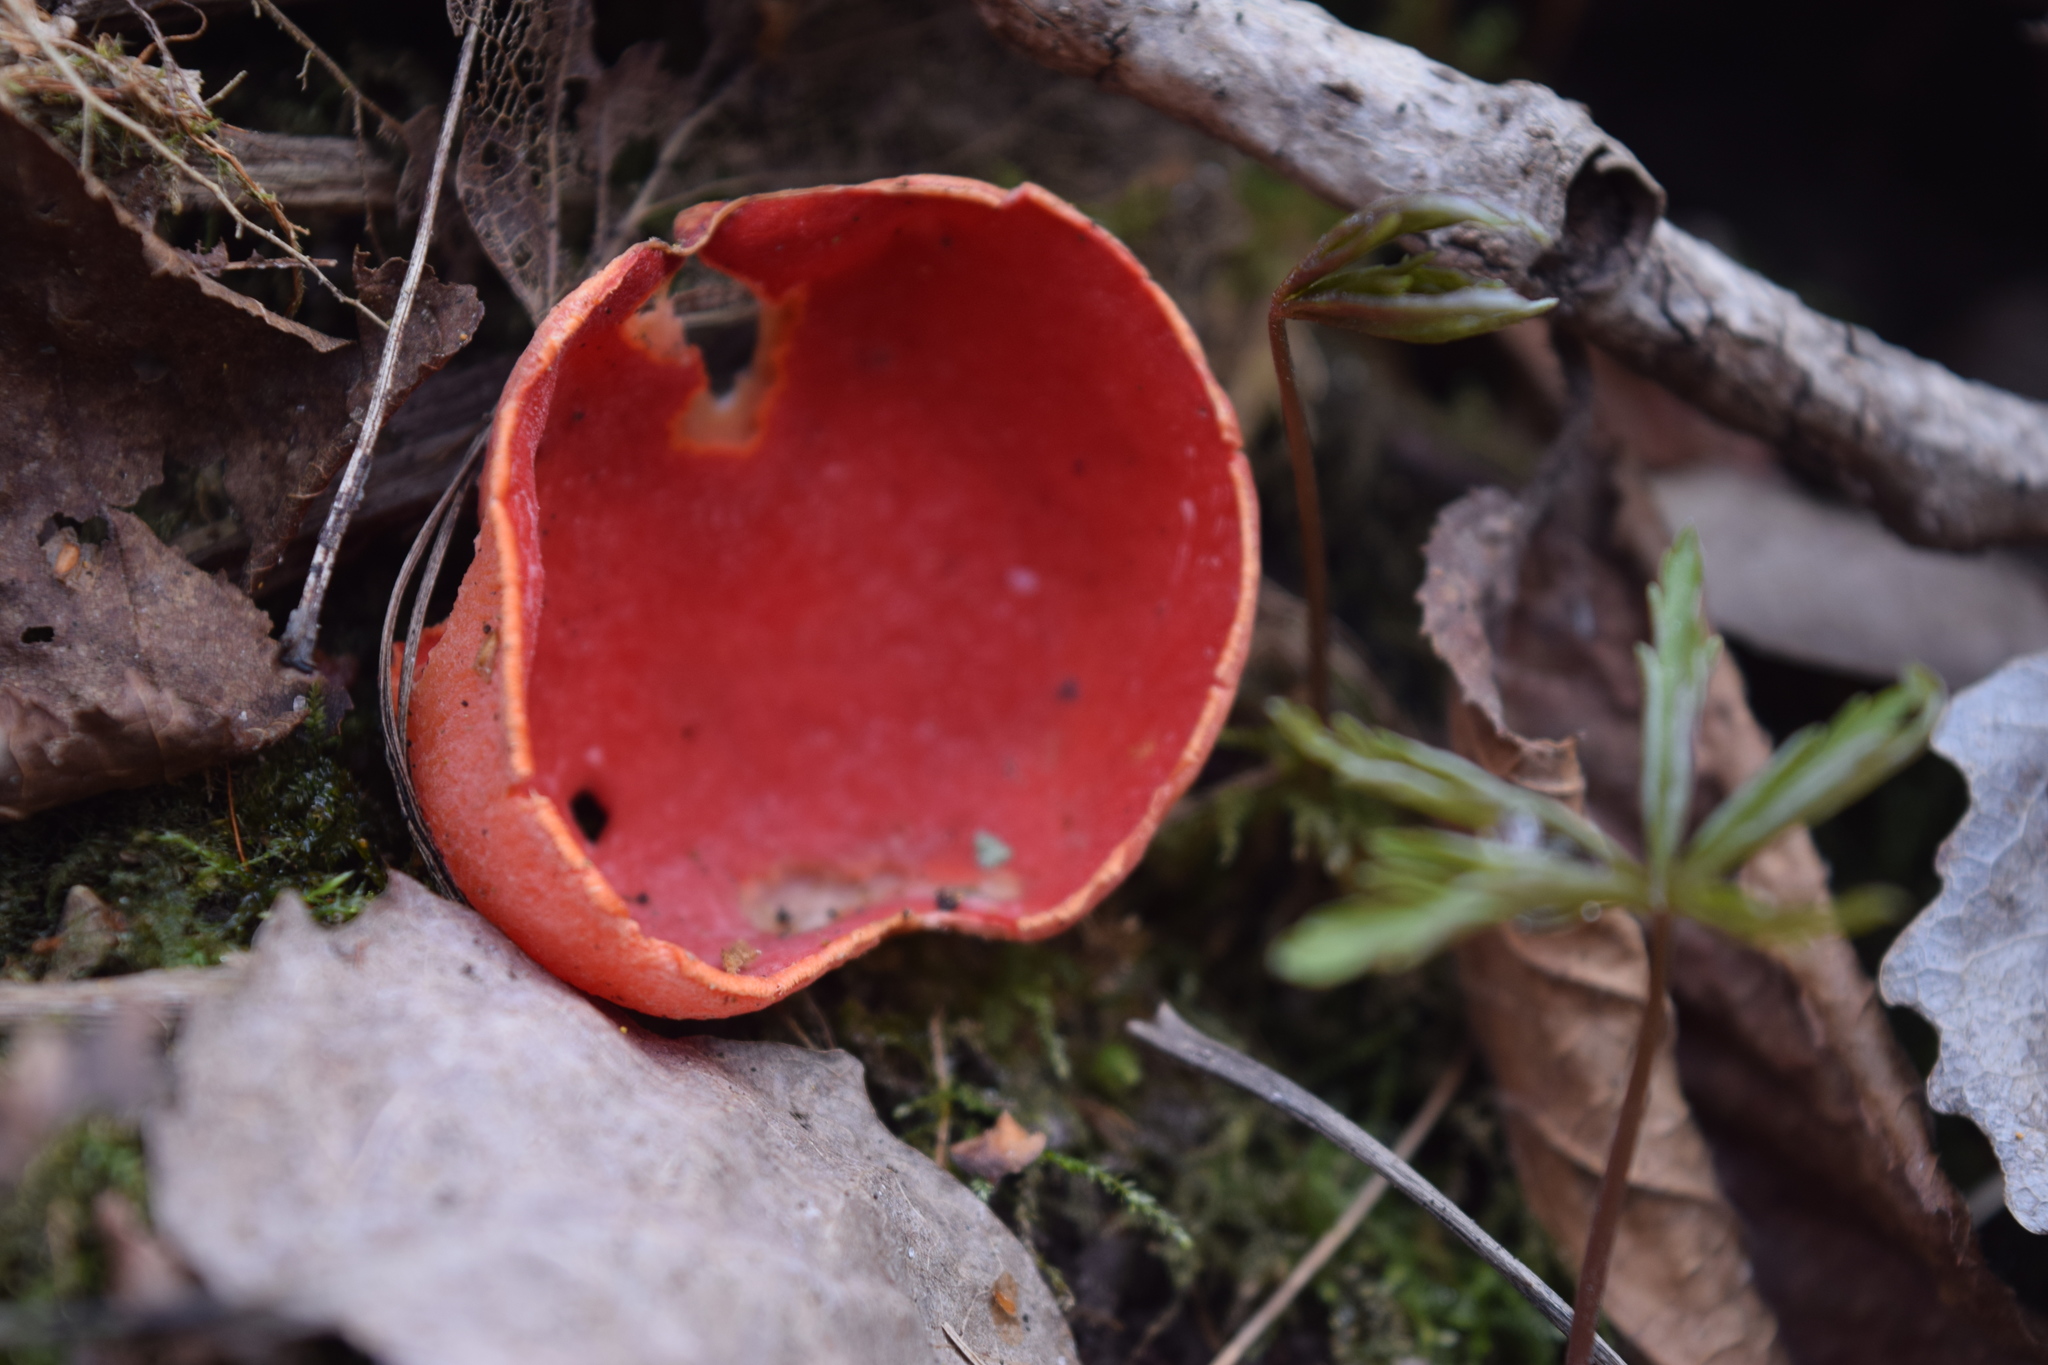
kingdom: Fungi
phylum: Ascomycota
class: Pezizomycetes
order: Pezizales
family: Sarcoscyphaceae
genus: Sarcoscypha
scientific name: Sarcoscypha austriaca
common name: Scarlet elfcup
